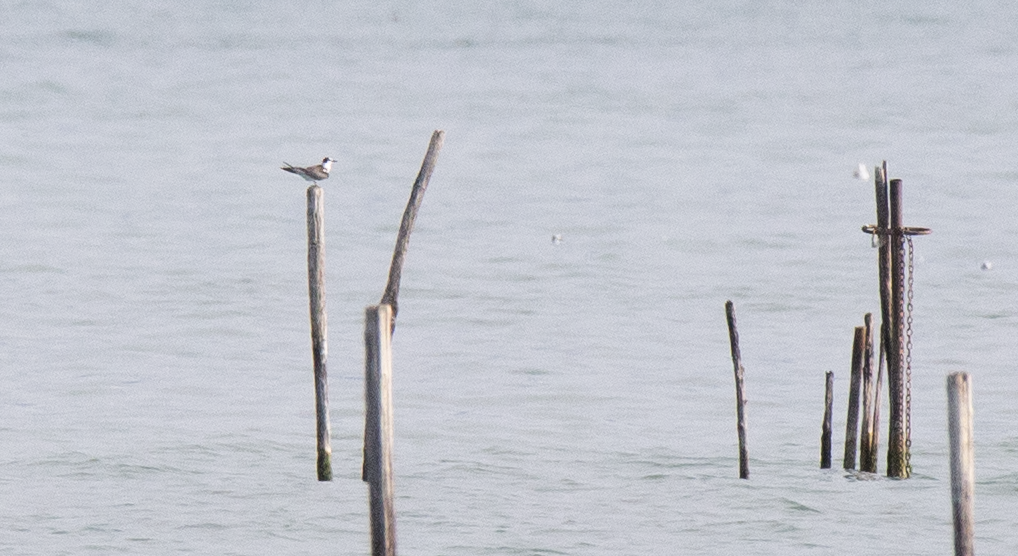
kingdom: Animalia
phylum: Chordata
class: Aves
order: Charadriiformes
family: Laridae
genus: Chlidonias
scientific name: Chlidonias niger
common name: Black tern
